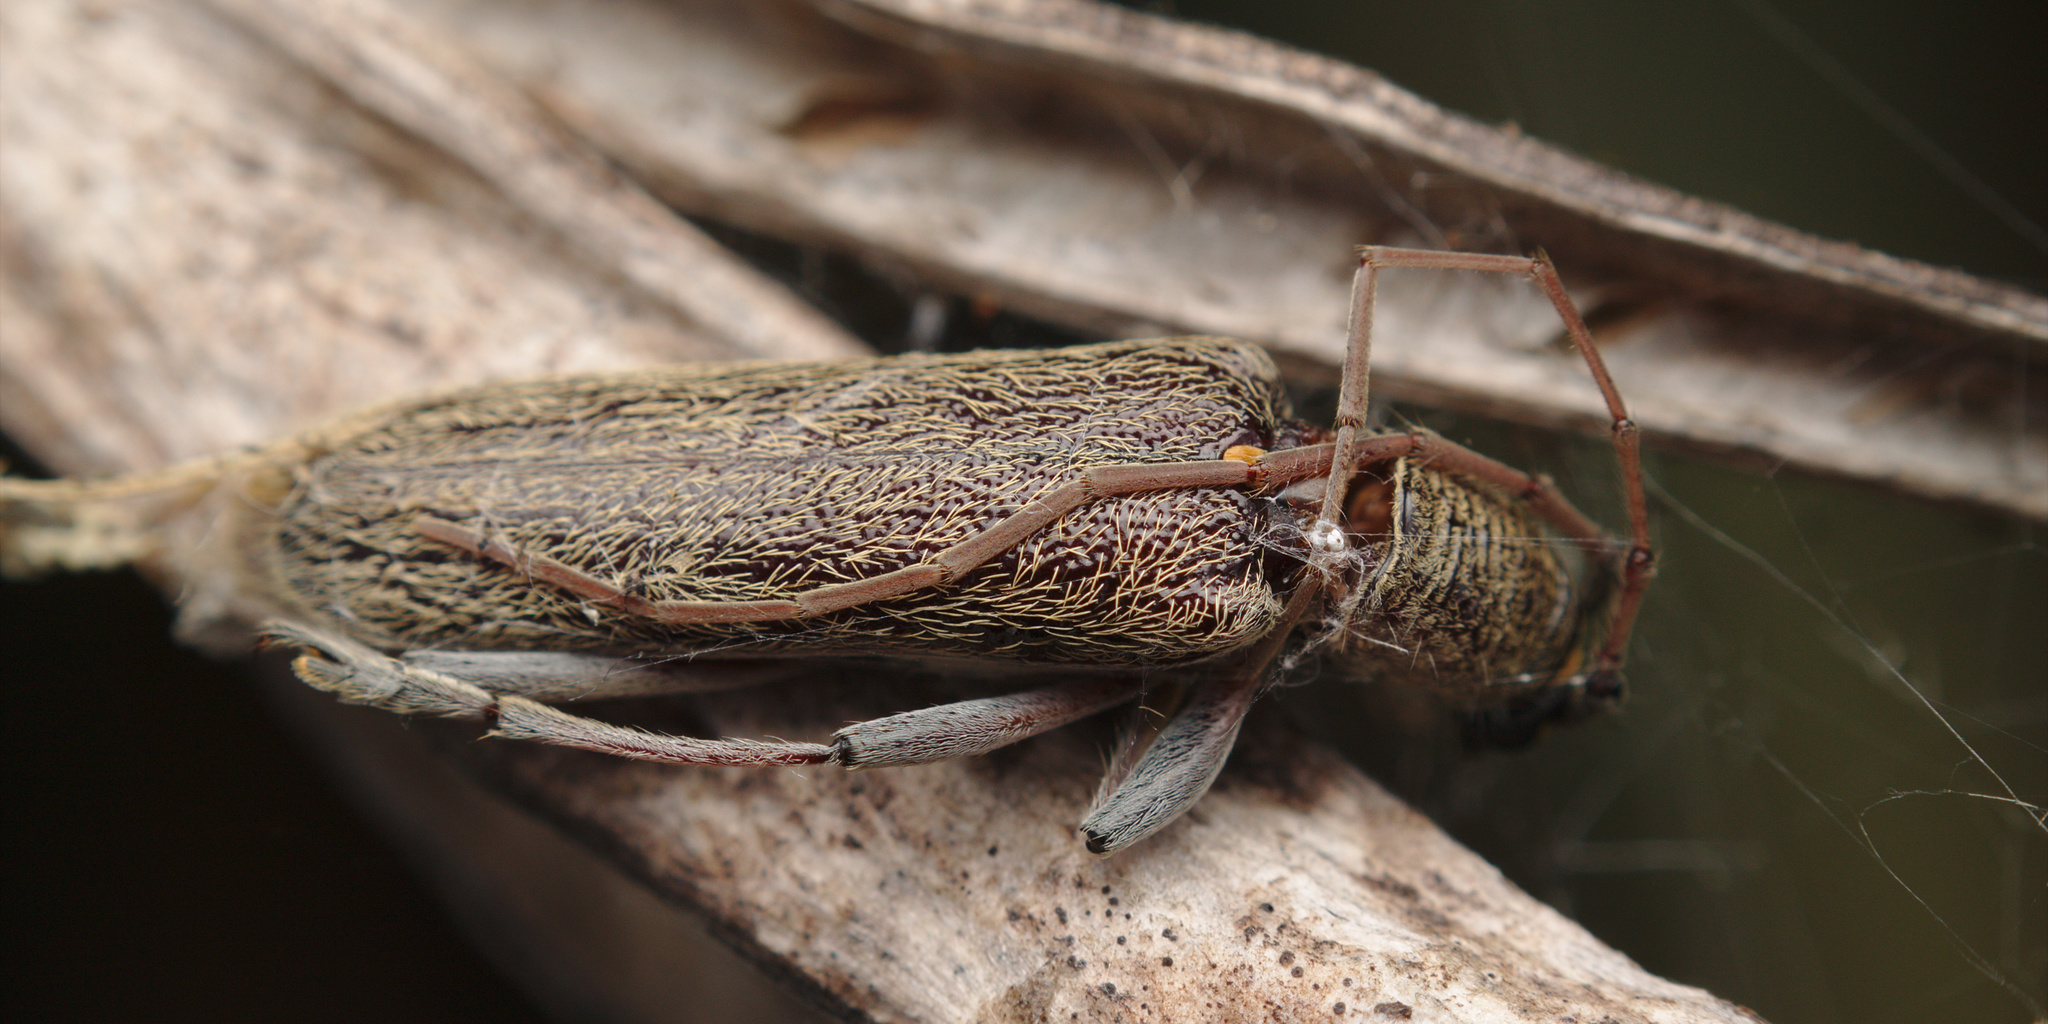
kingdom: Animalia
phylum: Arthropoda
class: Insecta
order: Coleoptera
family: Cerambycidae
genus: Oemona
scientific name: Oemona hirta
